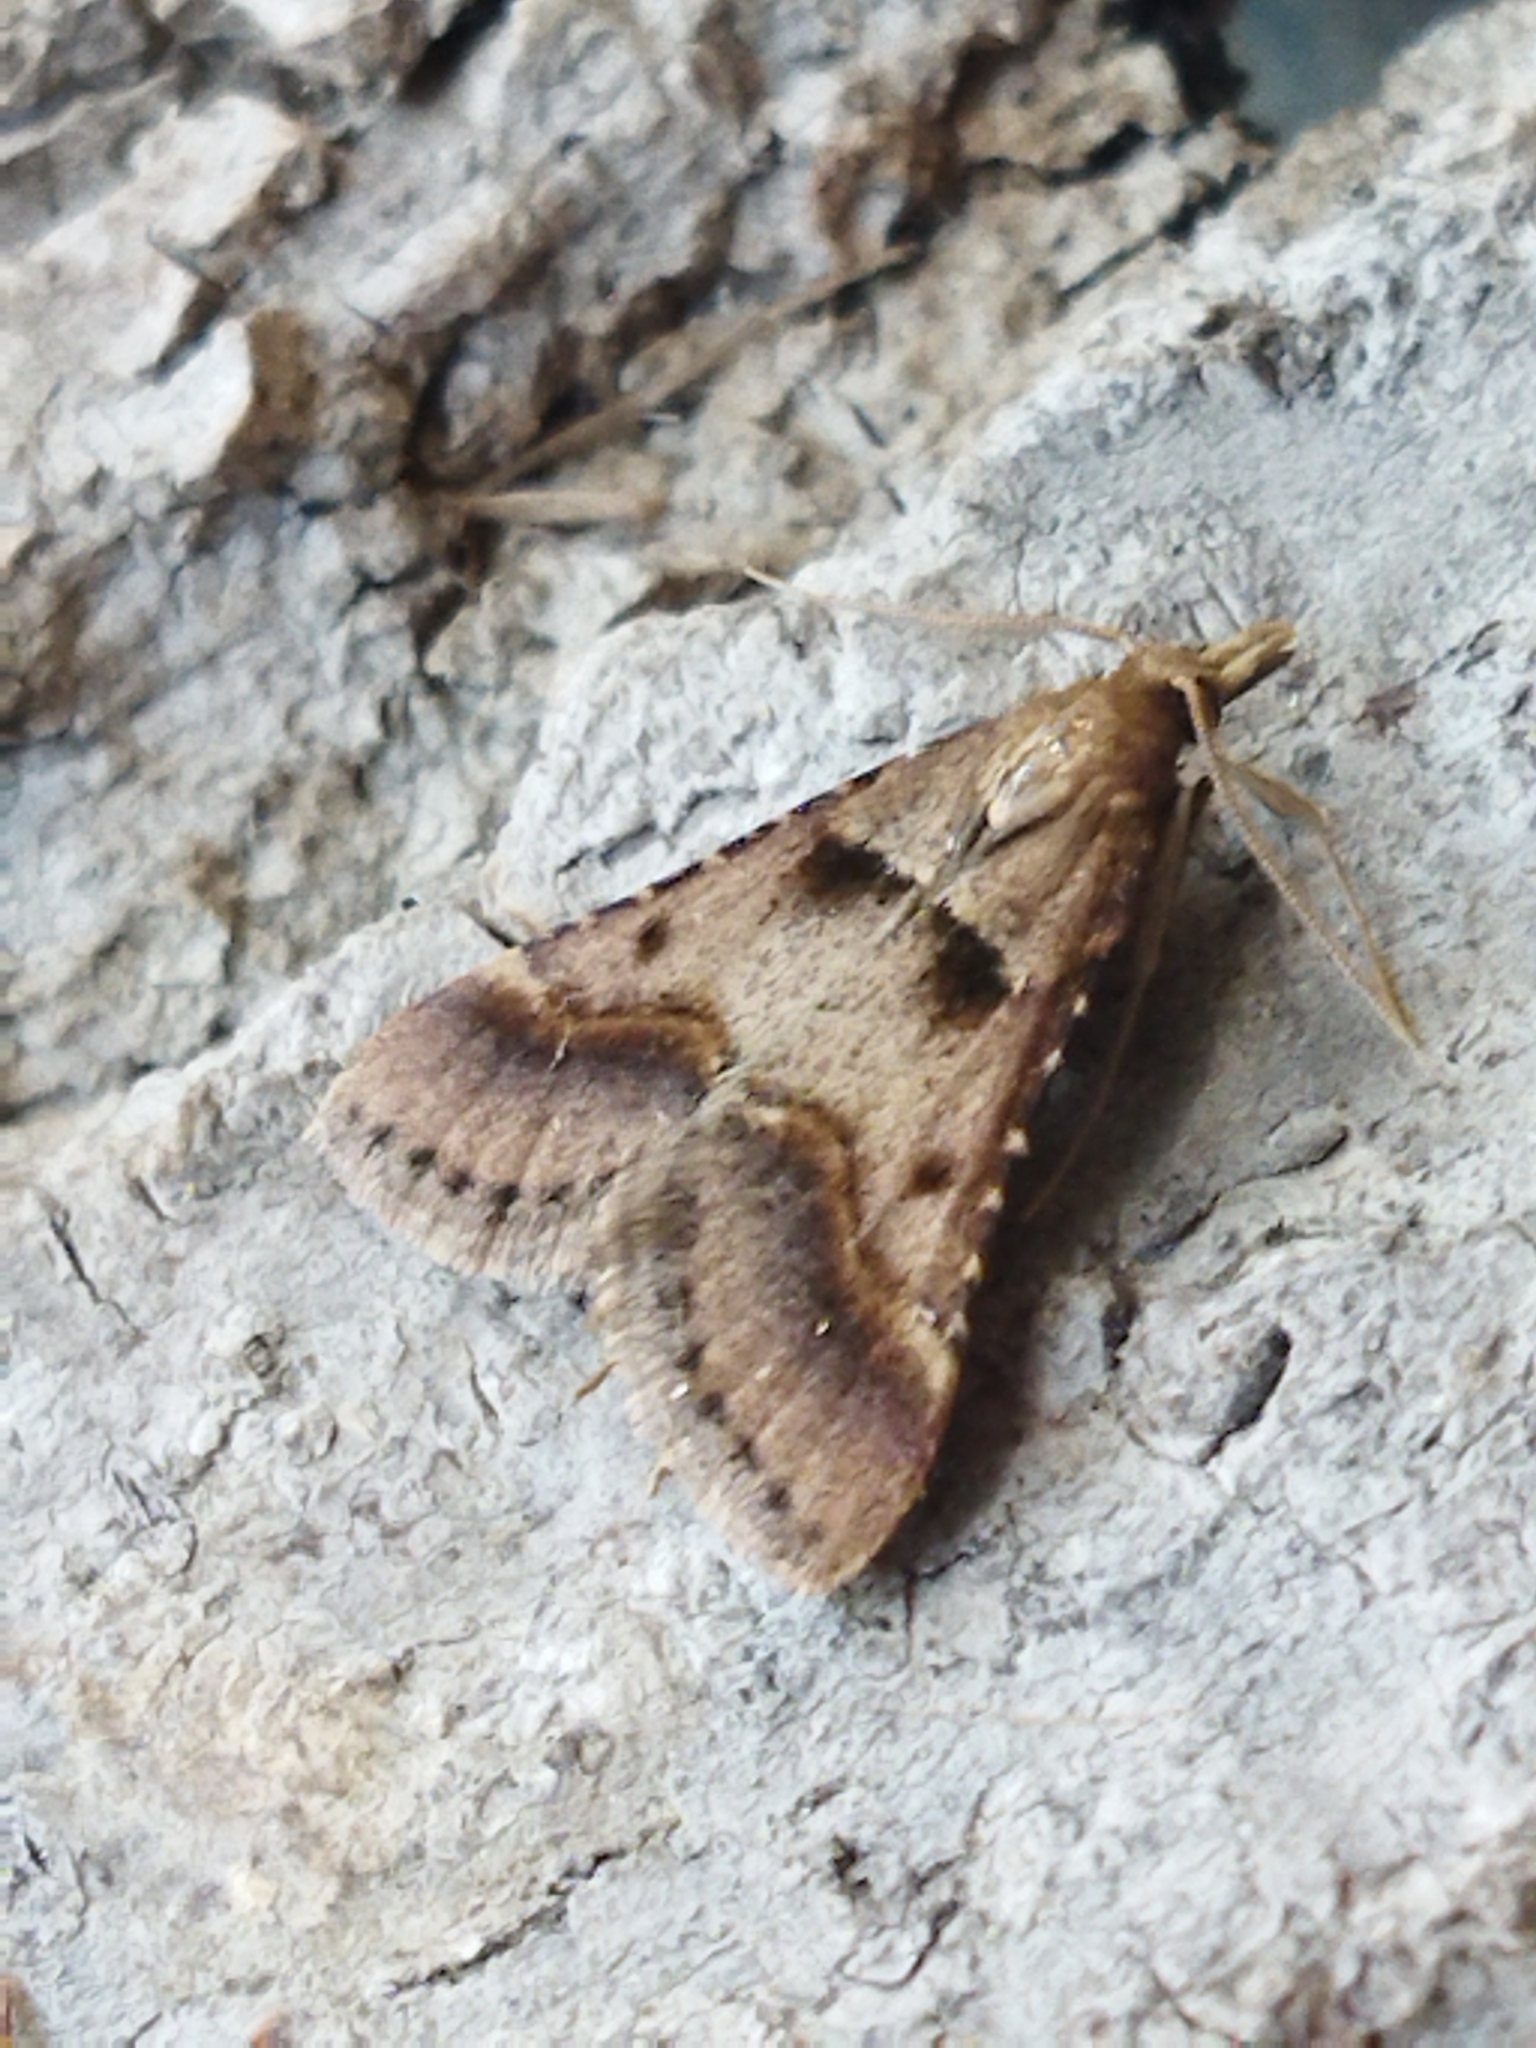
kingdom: Animalia
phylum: Arthropoda
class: Insecta
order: Lepidoptera
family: Pyralidae
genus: Stemmatophora
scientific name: Stemmatophora brunnealis
